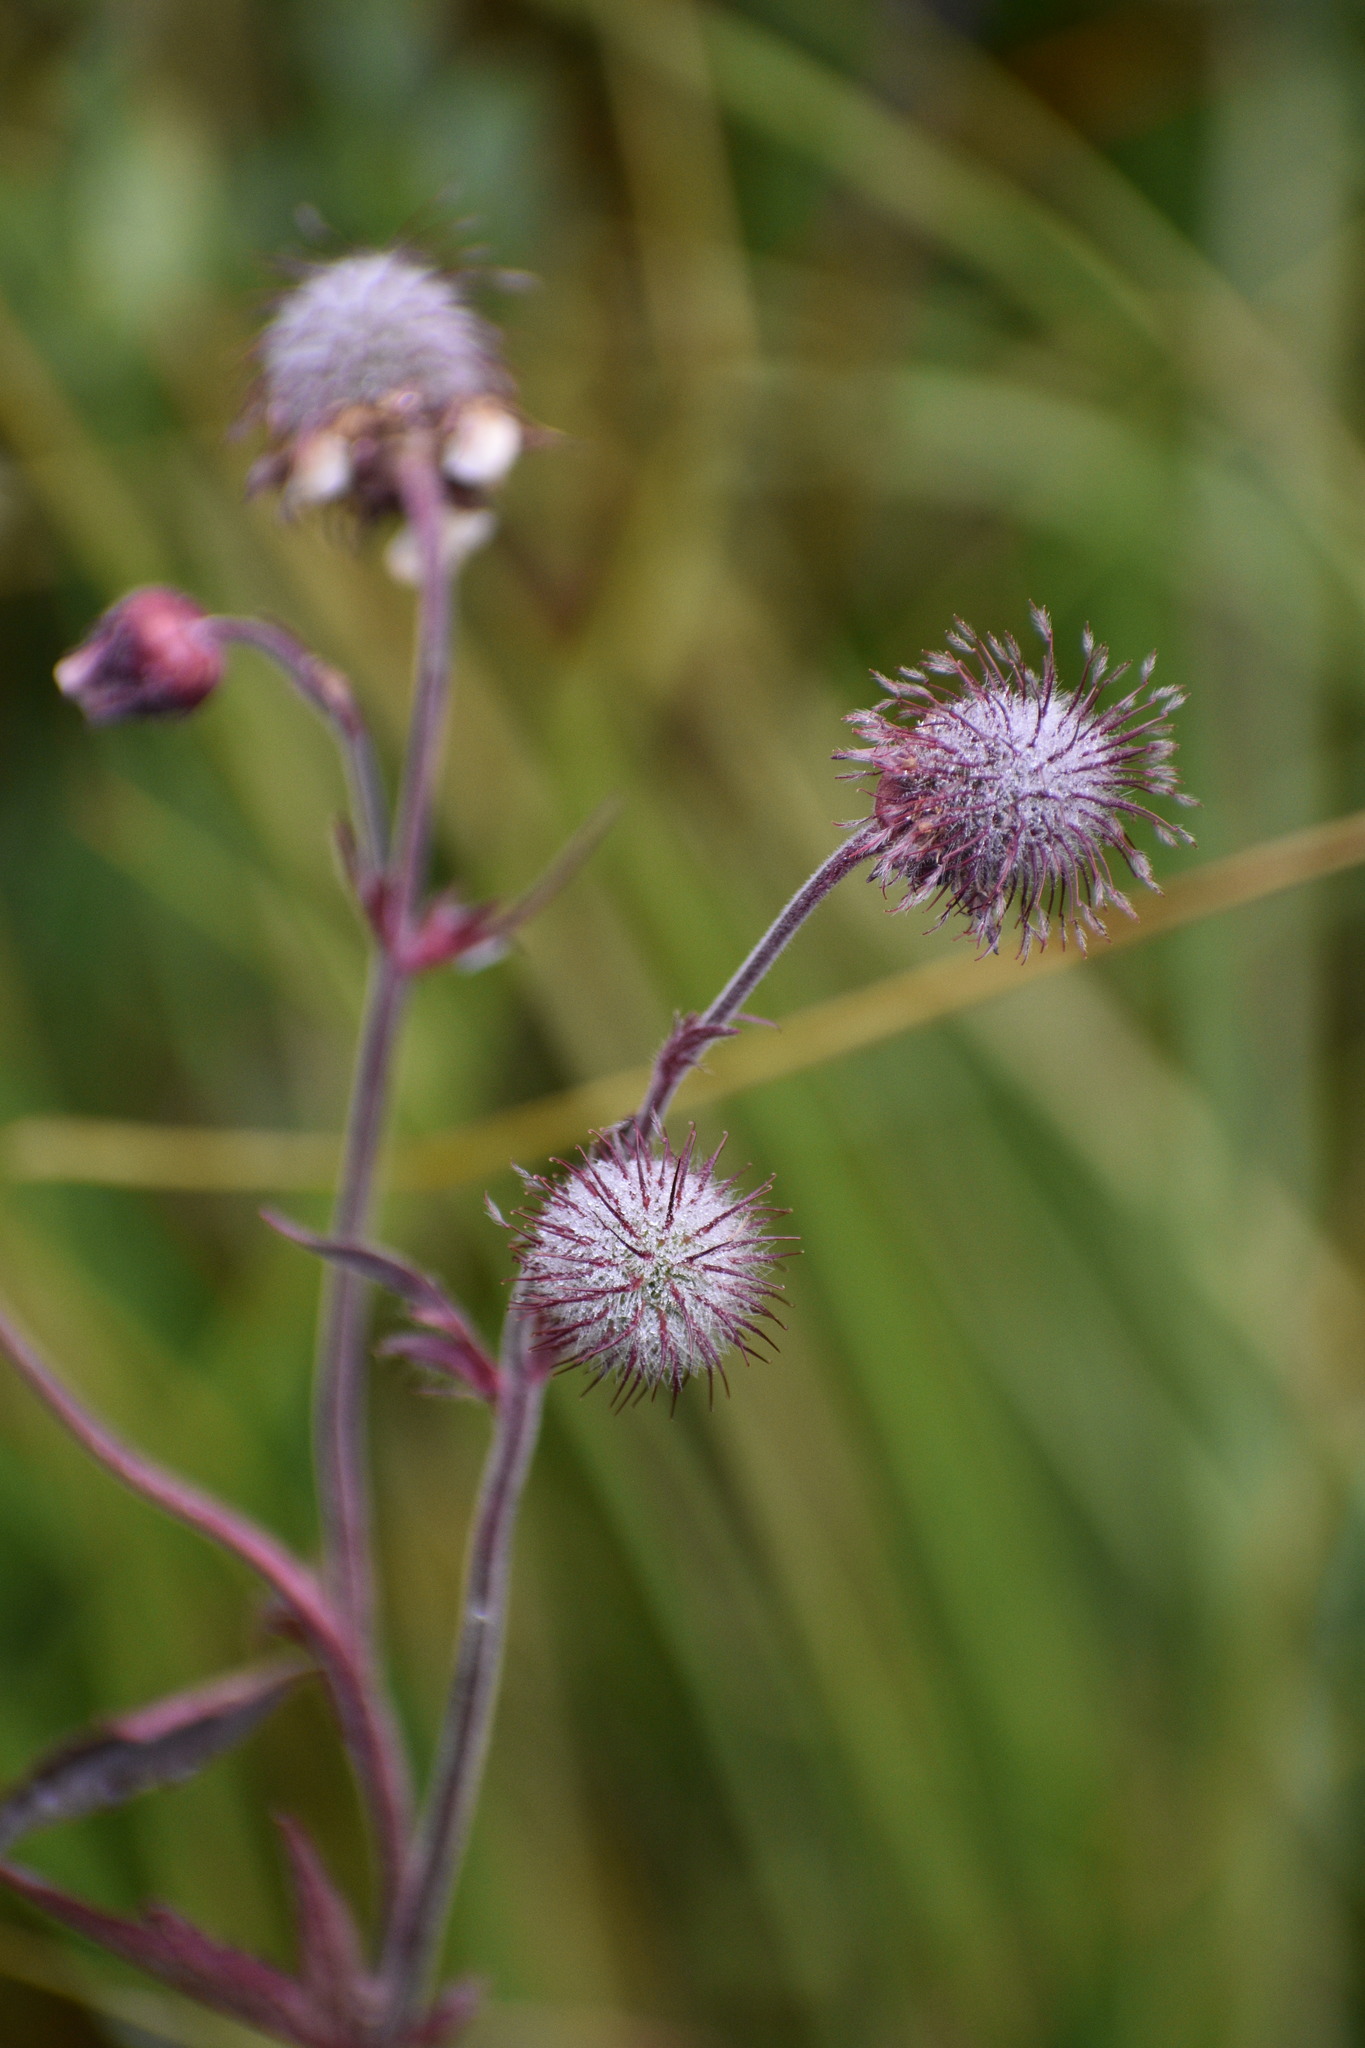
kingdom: Plantae
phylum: Tracheophyta
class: Magnoliopsida
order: Rosales
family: Rosaceae
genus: Geum
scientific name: Geum rivale
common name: Water avens
